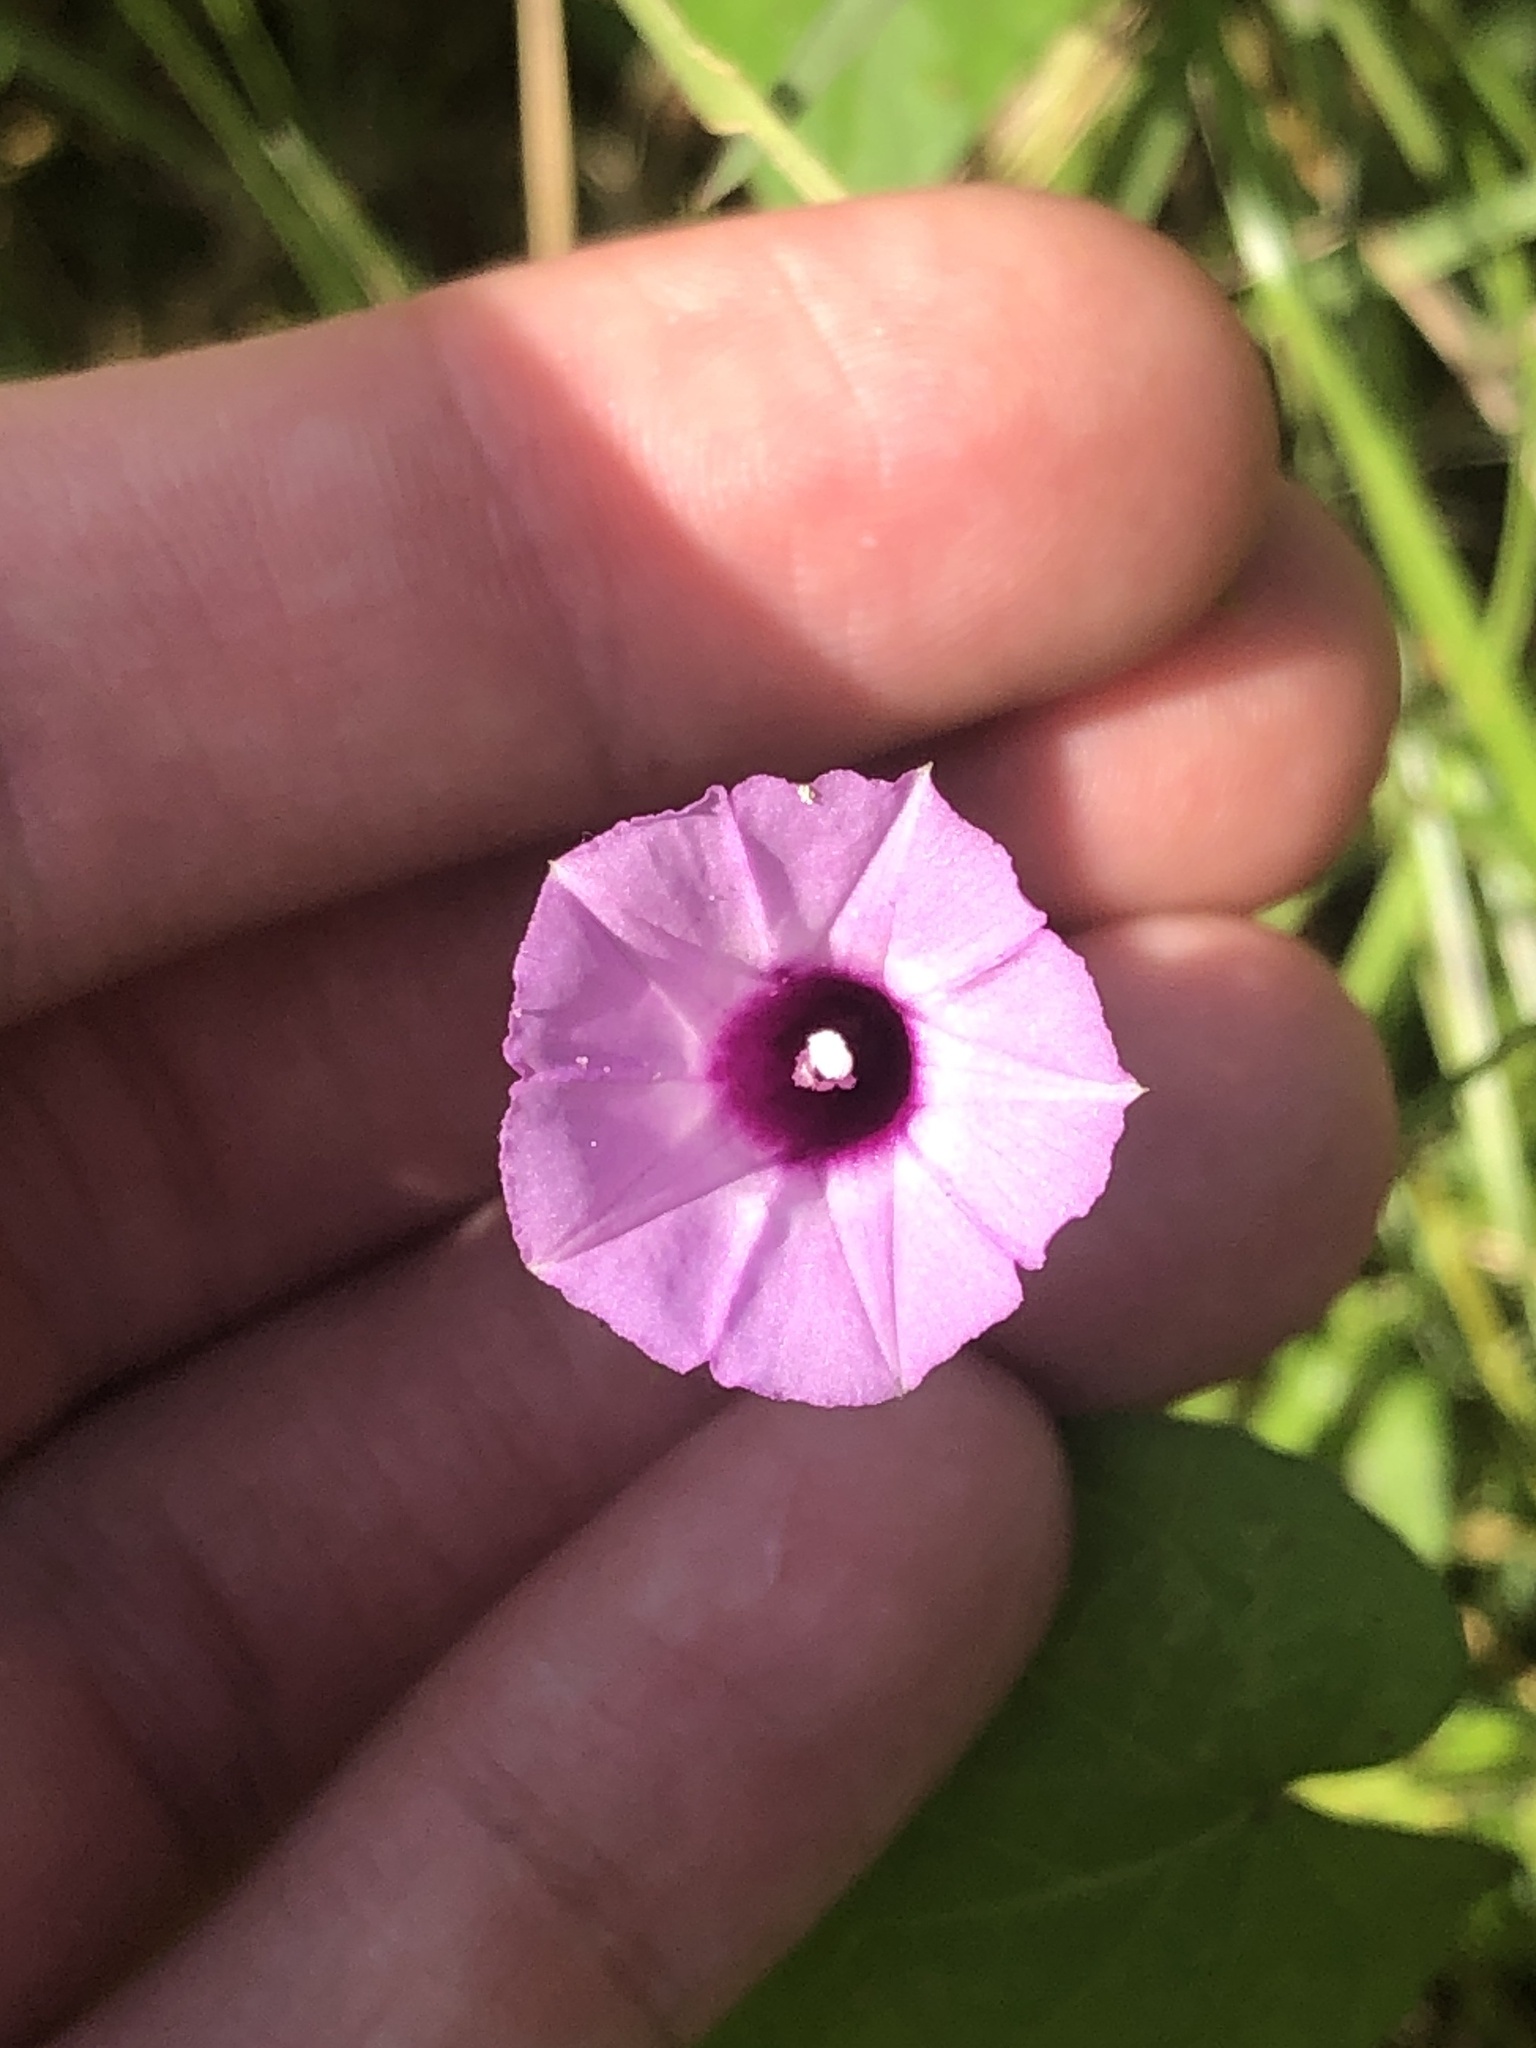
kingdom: Plantae
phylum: Tracheophyta
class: Magnoliopsida
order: Solanales
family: Convolvulaceae
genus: Ipomoea
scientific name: Ipomoea triloba
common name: Little-bell
